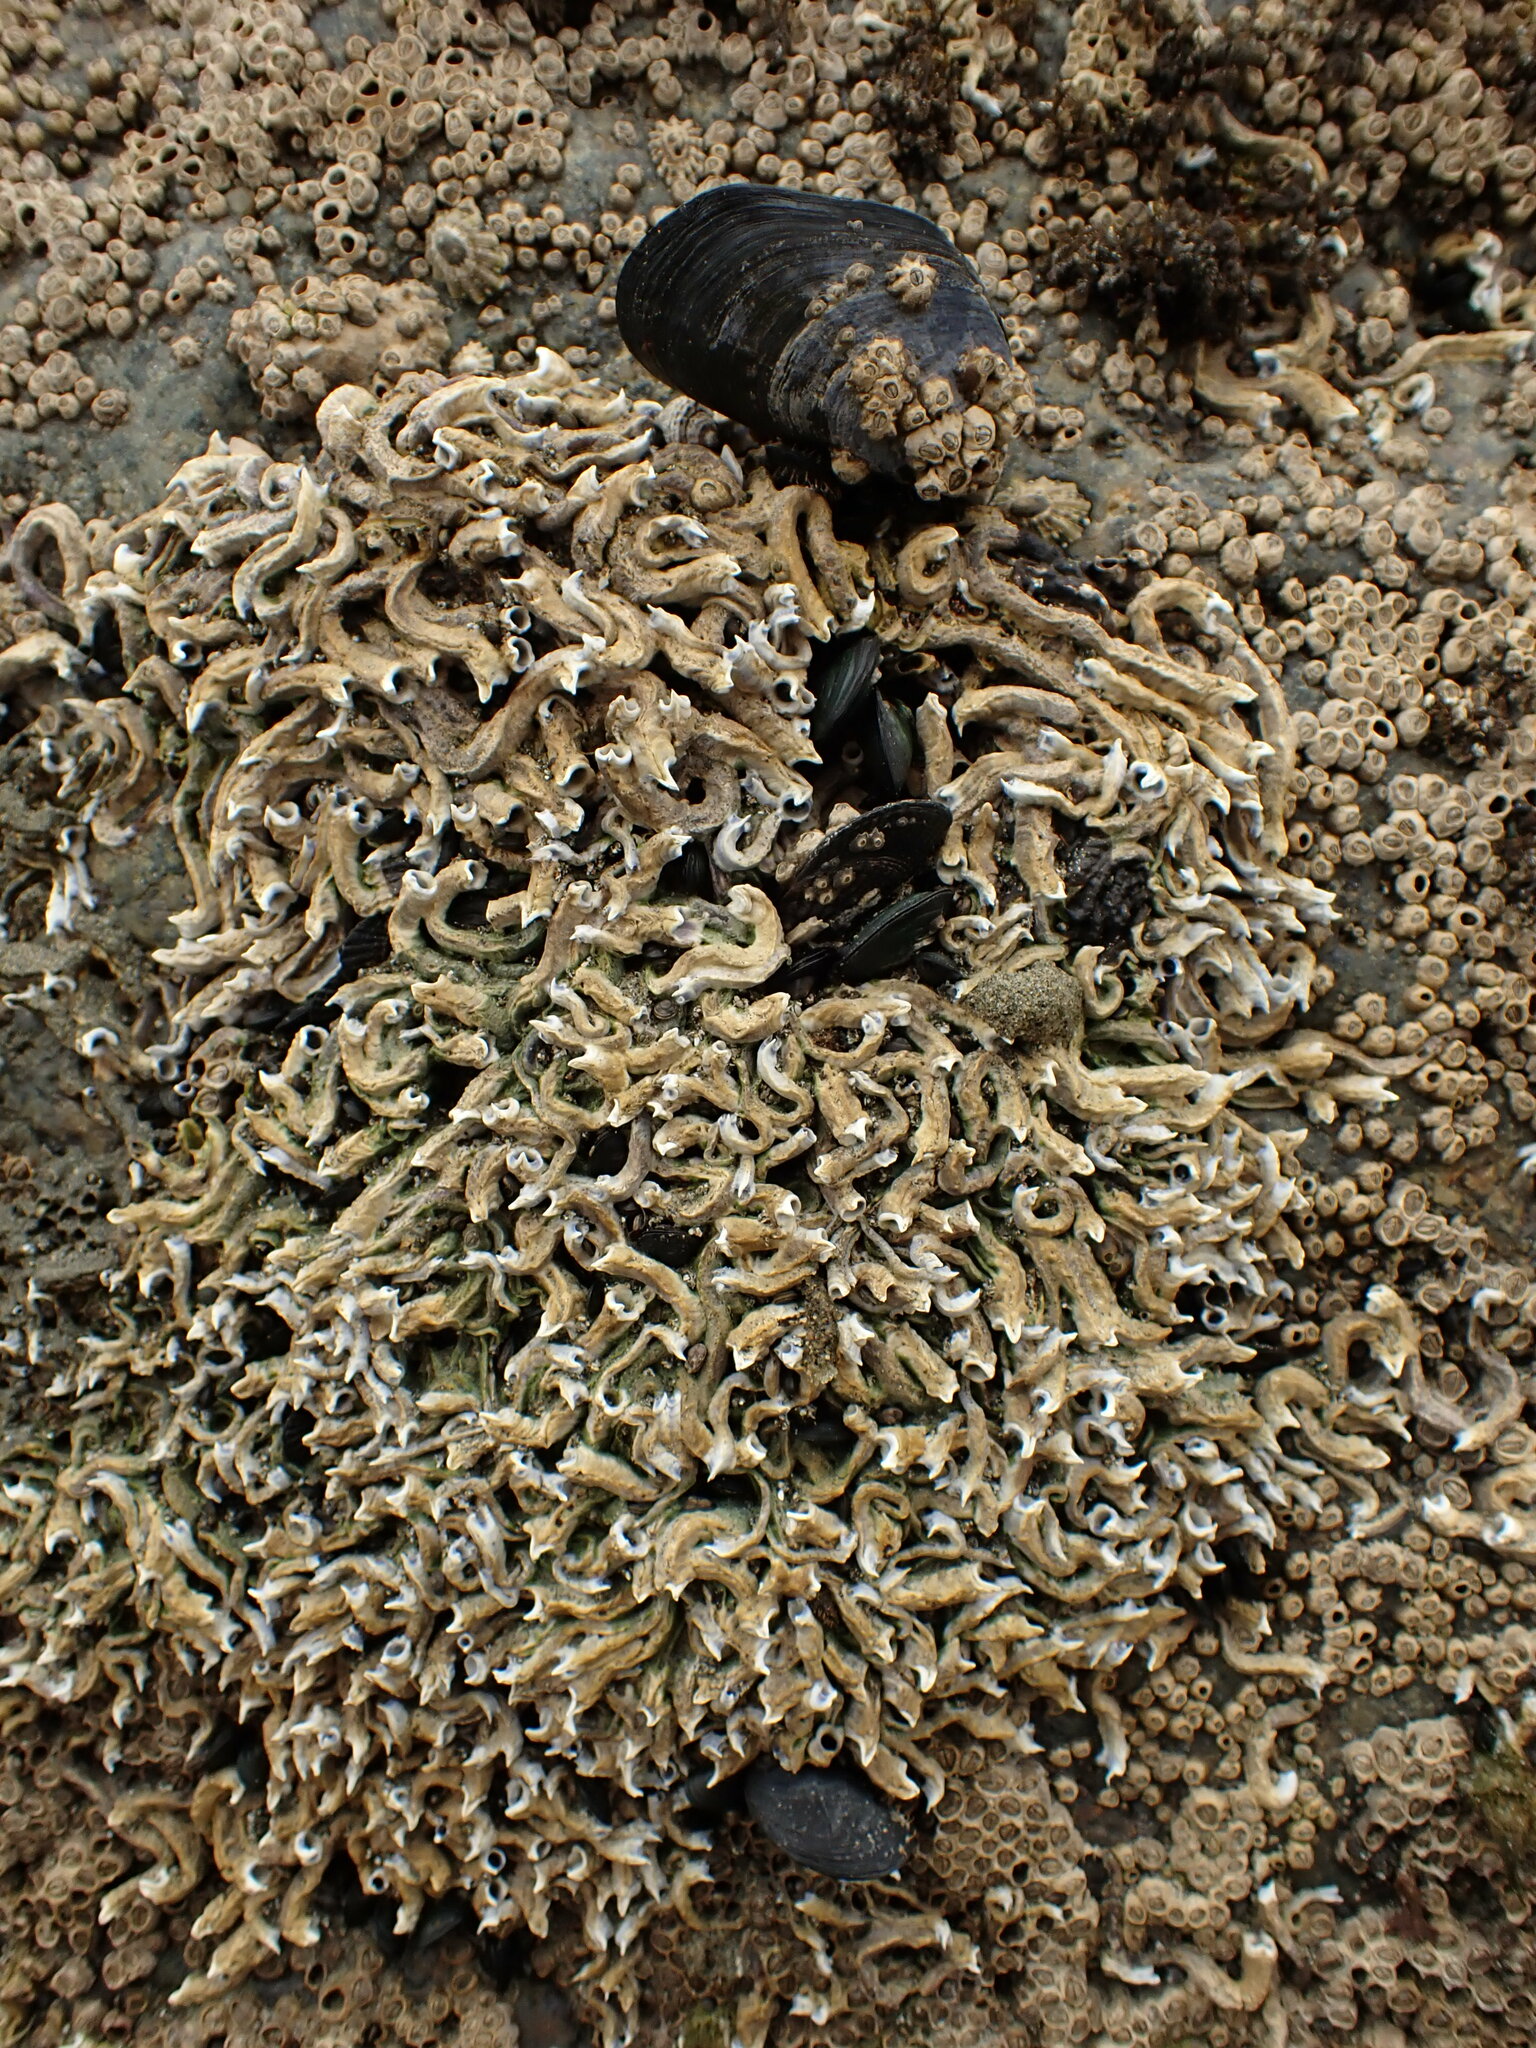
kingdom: Animalia
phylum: Annelida
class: Polychaeta
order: Sabellida
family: Serpulidae
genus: Spirobranchus
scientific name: Spirobranchus cariniferus
